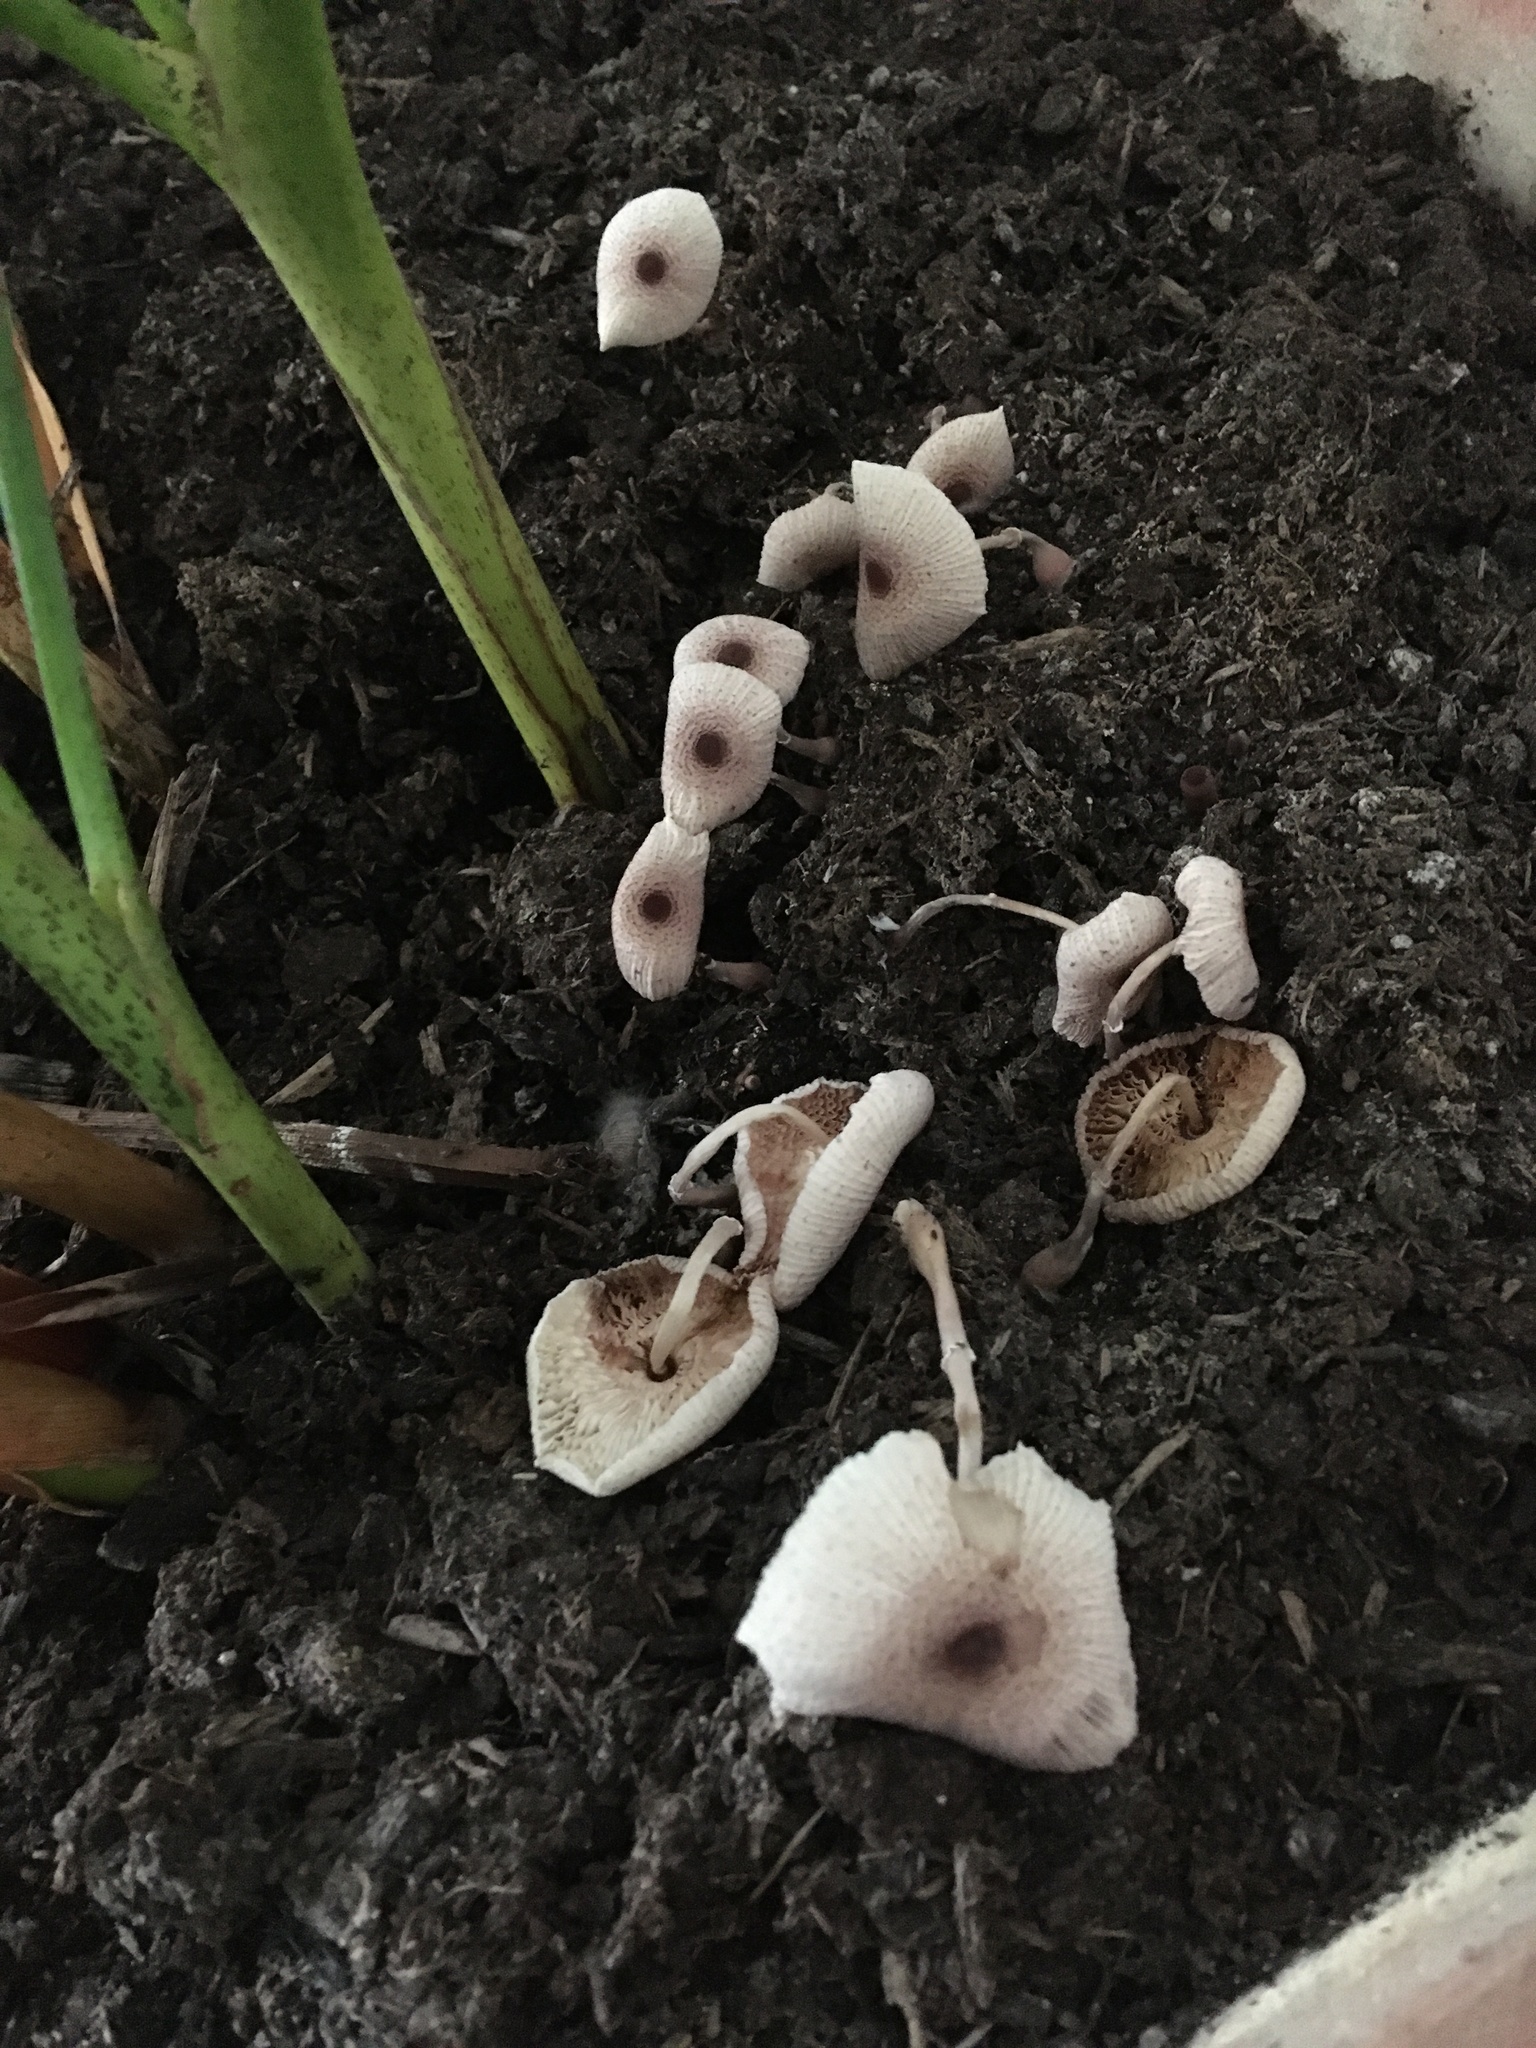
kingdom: Fungi
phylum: Basidiomycota
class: Agaricomycetes
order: Agaricales
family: Agaricaceae
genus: Leucocoprinus
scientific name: Leucocoprinus ianthinus
